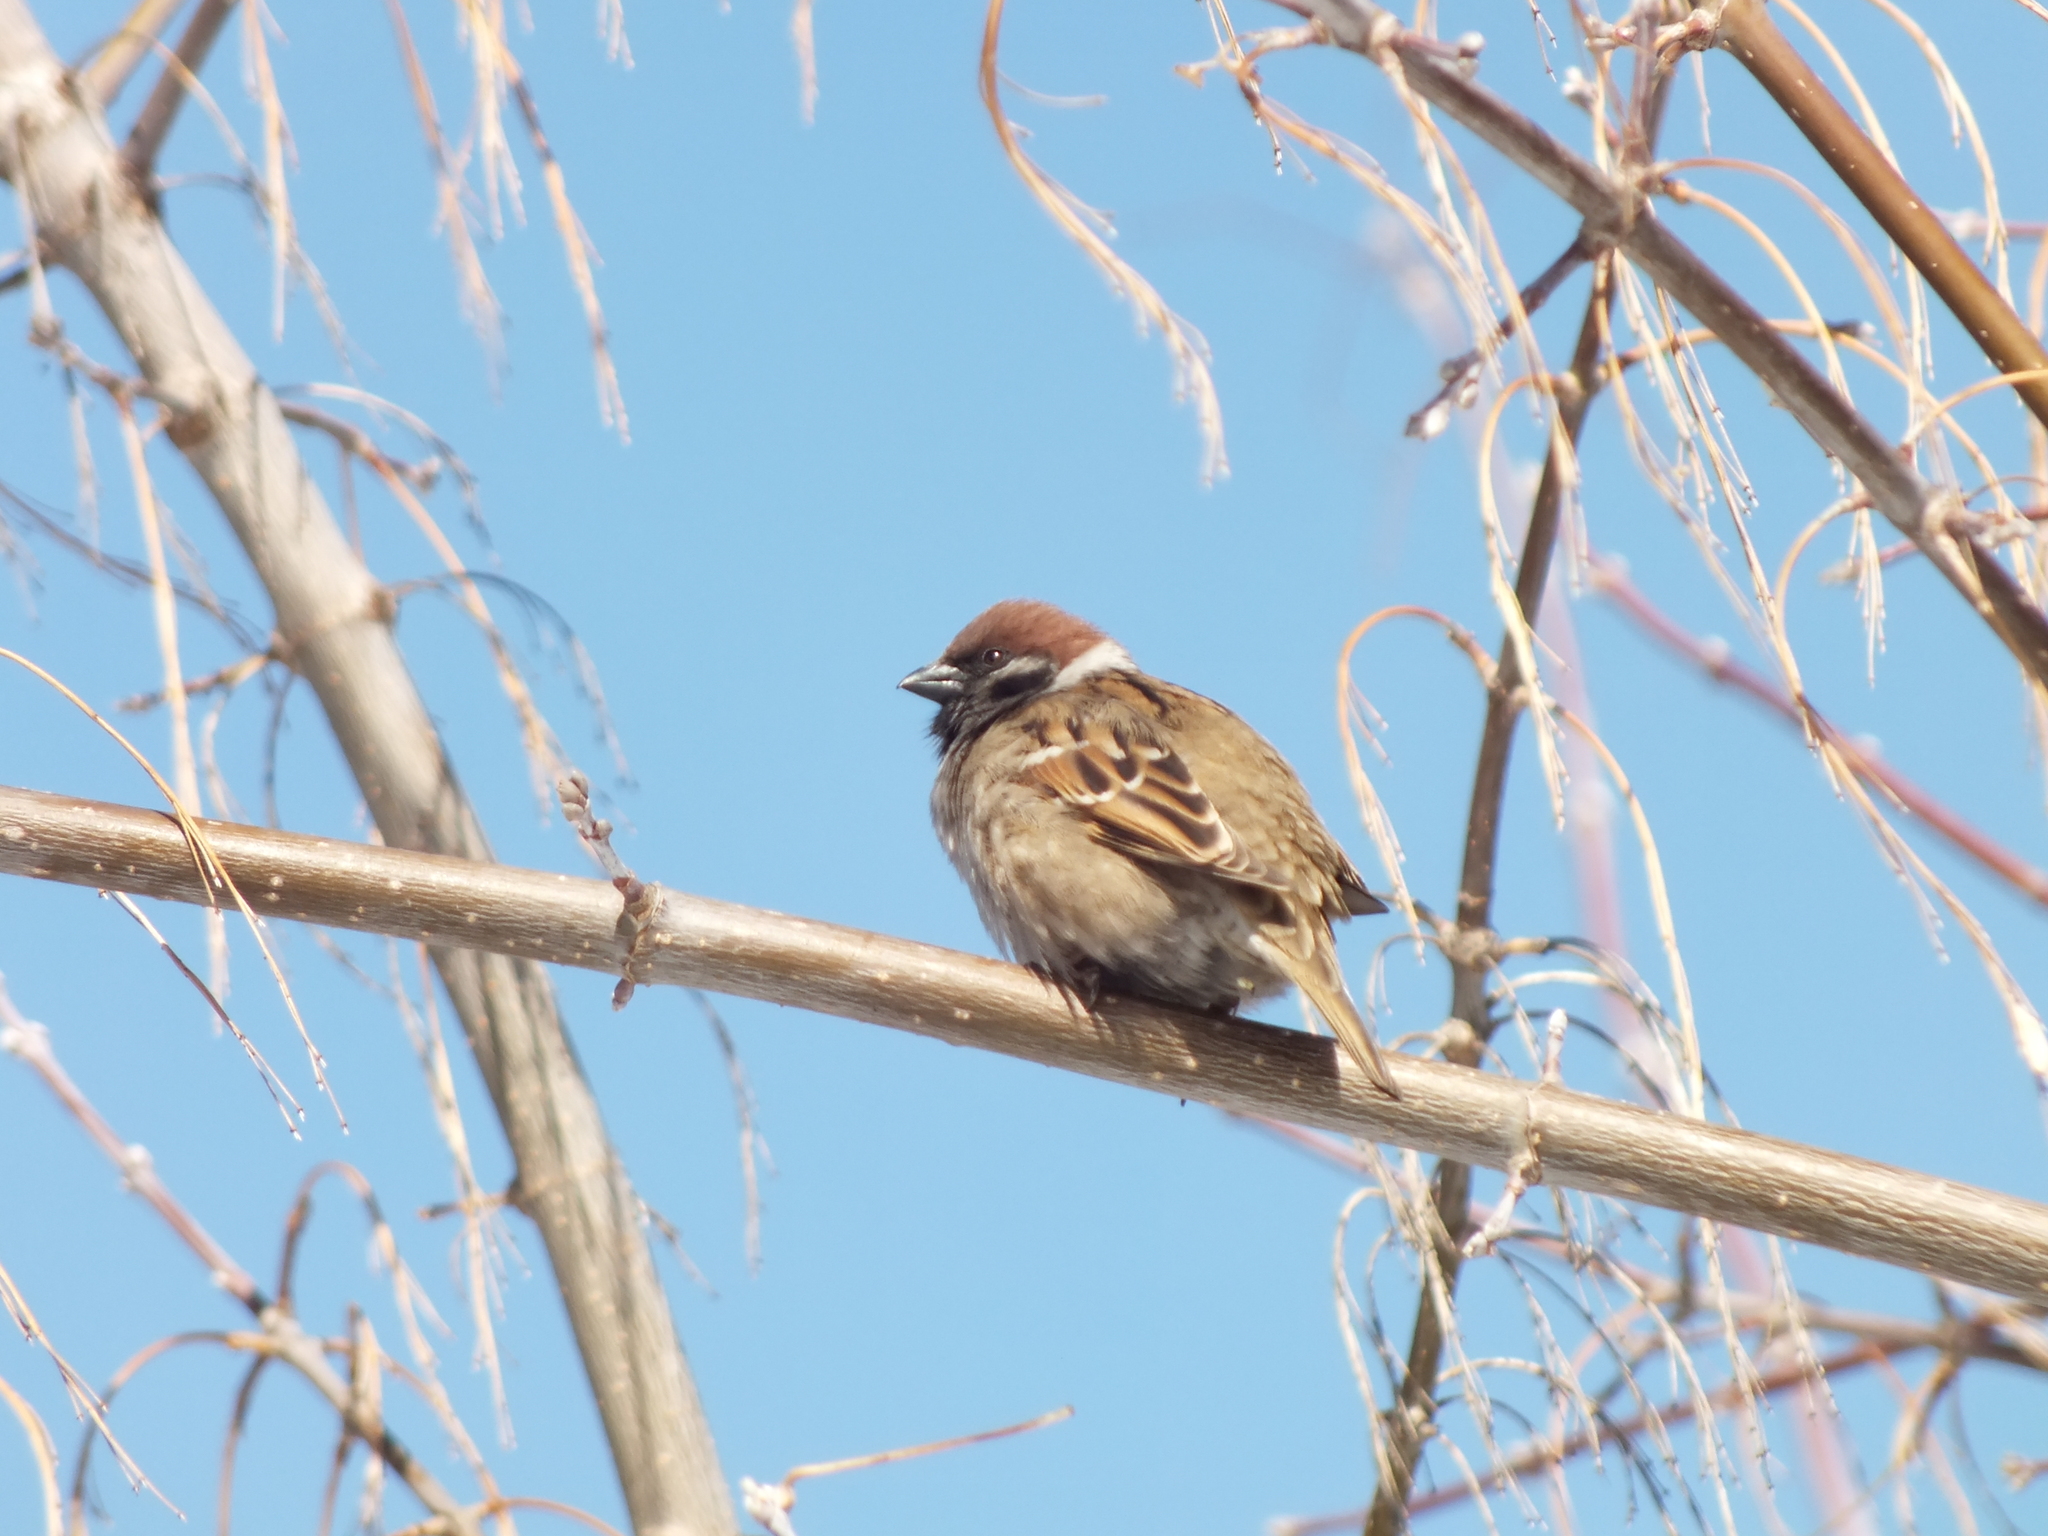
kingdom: Animalia
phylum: Chordata
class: Aves
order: Passeriformes
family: Passeridae
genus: Passer
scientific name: Passer montanus
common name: Eurasian tree sparrow
